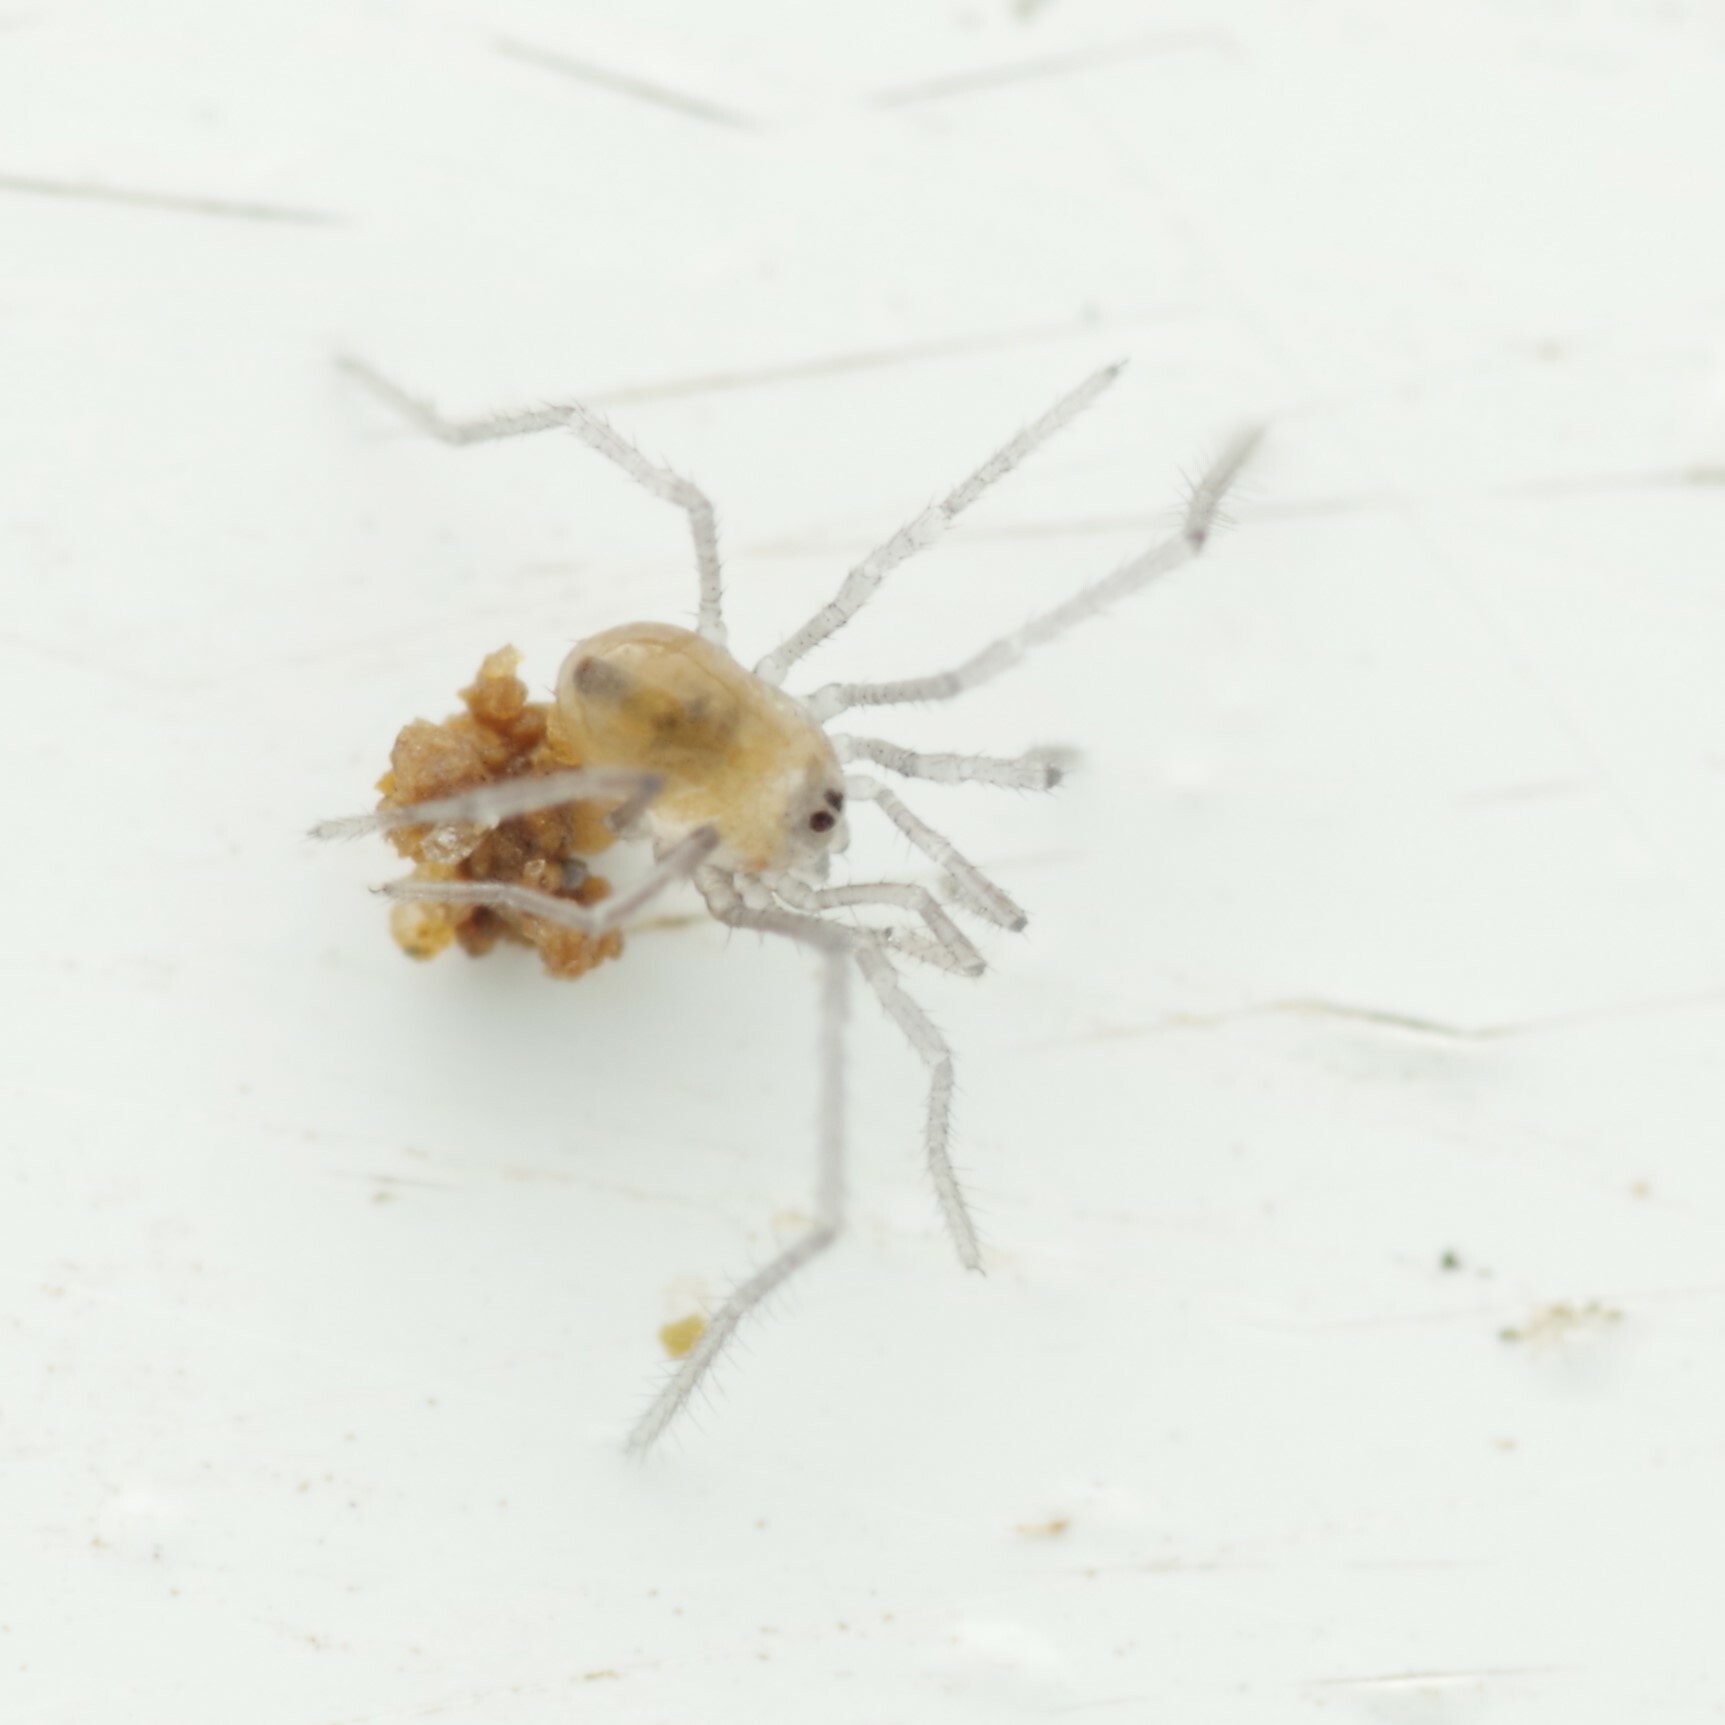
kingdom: Animalia
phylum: Arthropoda
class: Arachnida
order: Opiliones
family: Nemastomatidae
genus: Mitostoma
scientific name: Mitostoma chrysomelas
